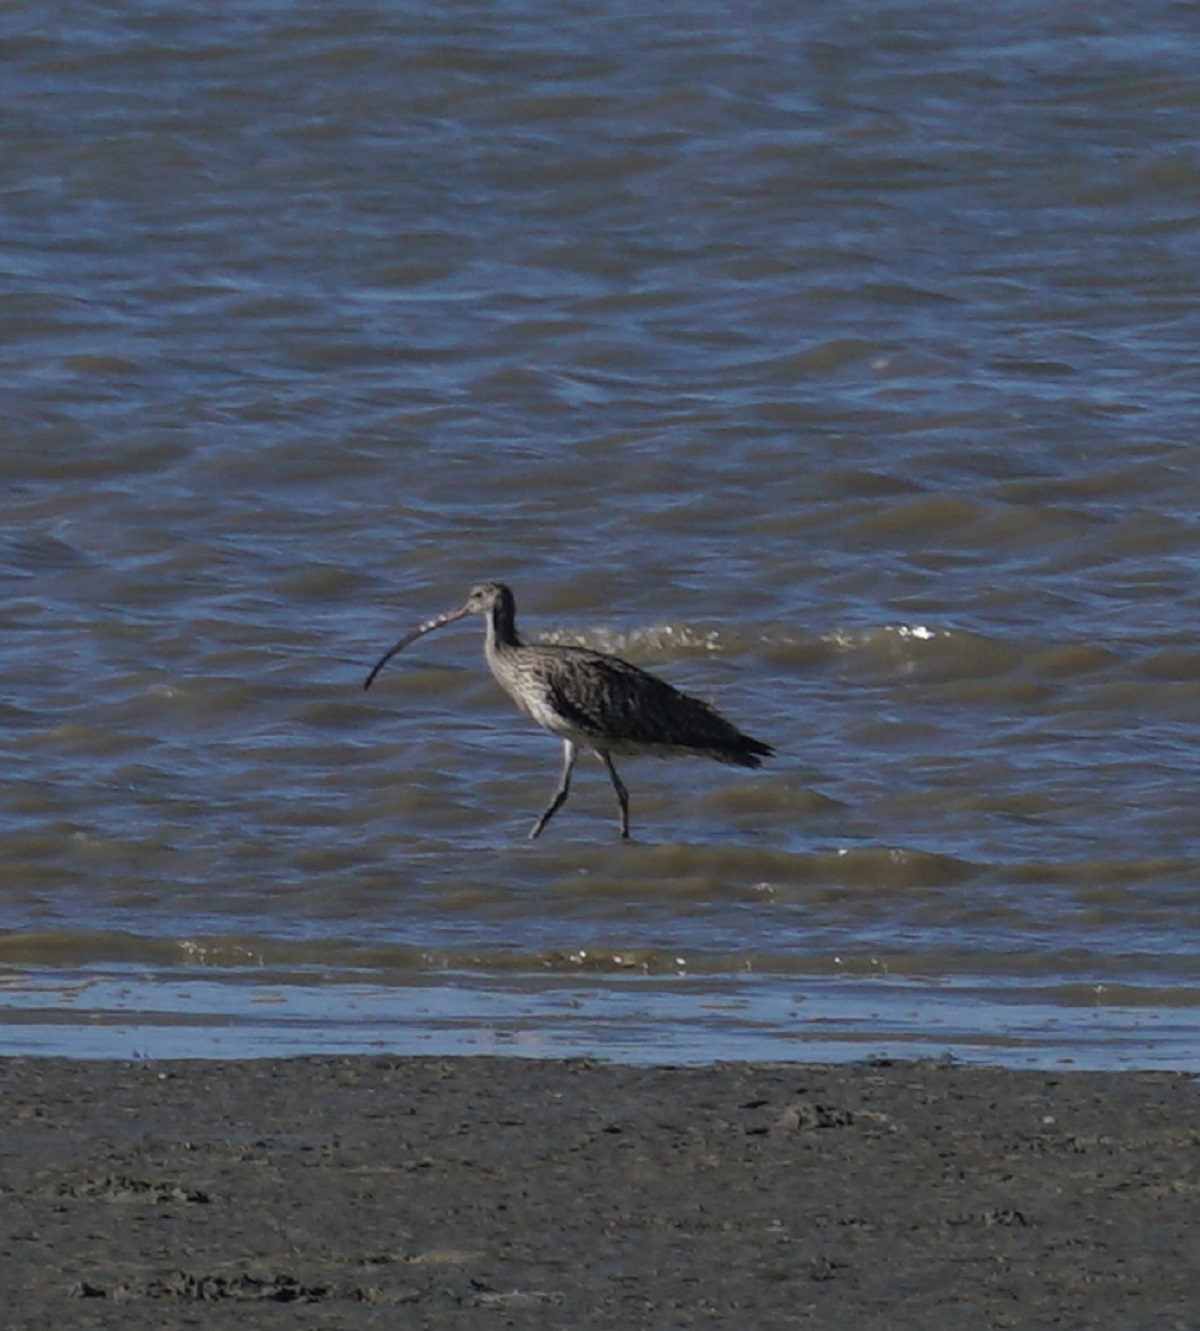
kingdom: Animalia
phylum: Chordata
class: Aves
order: Charadriiformes
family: Scolopacidae
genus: Numenius
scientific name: Numenius madagascariensis
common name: Far eastern curlew
